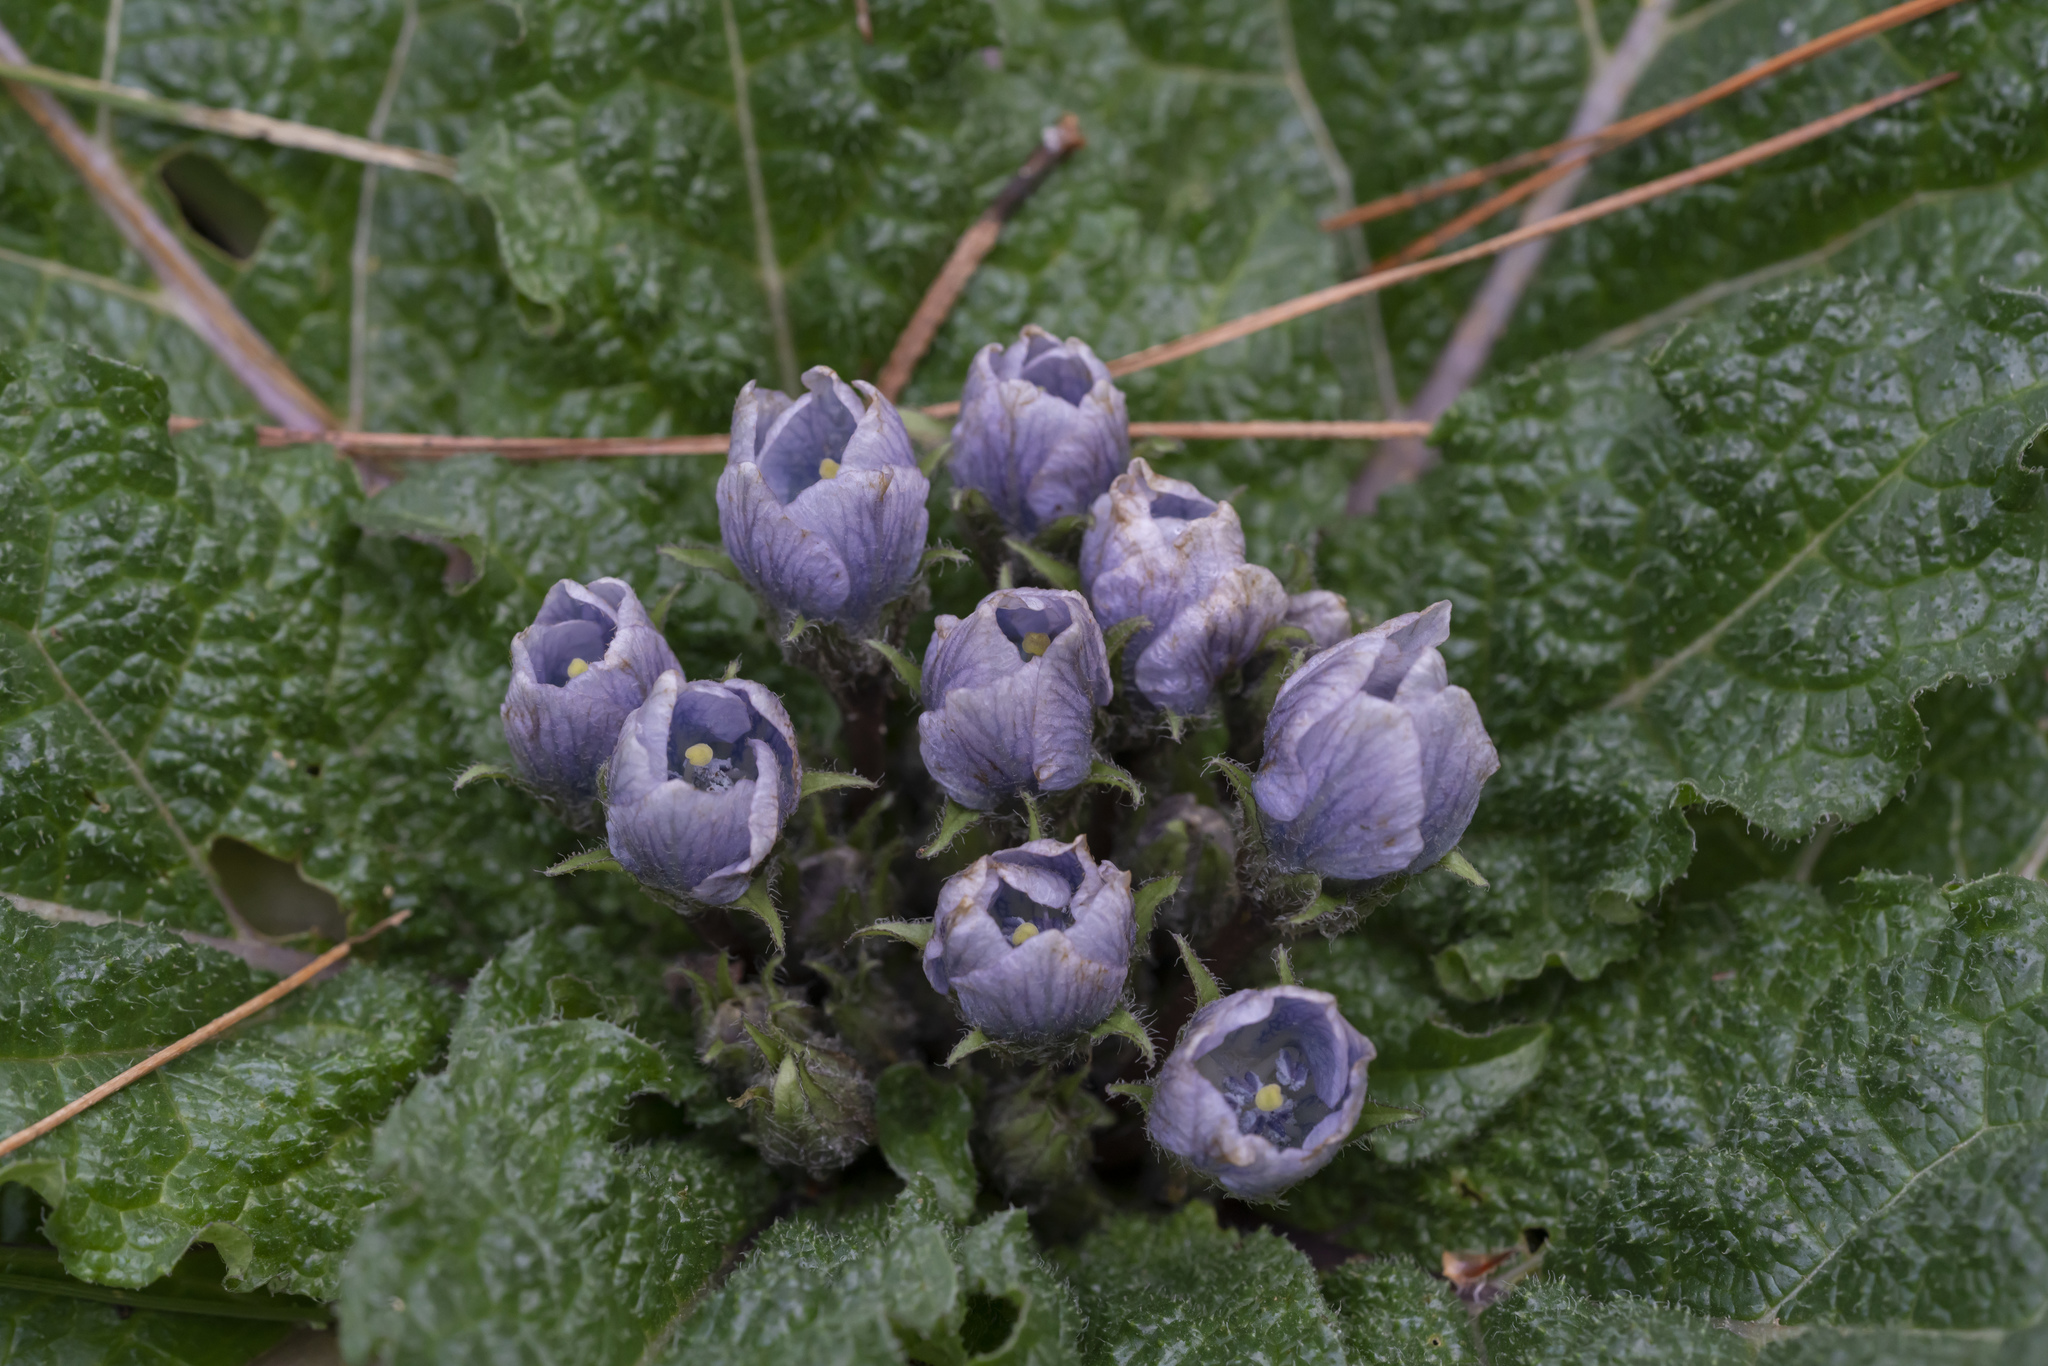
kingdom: Plantae
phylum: Tracheophyta
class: Magnoliopsida
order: Solanales
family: Solanaceae
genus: Mandragora
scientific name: Mandragora officinarum
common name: Mandrake
